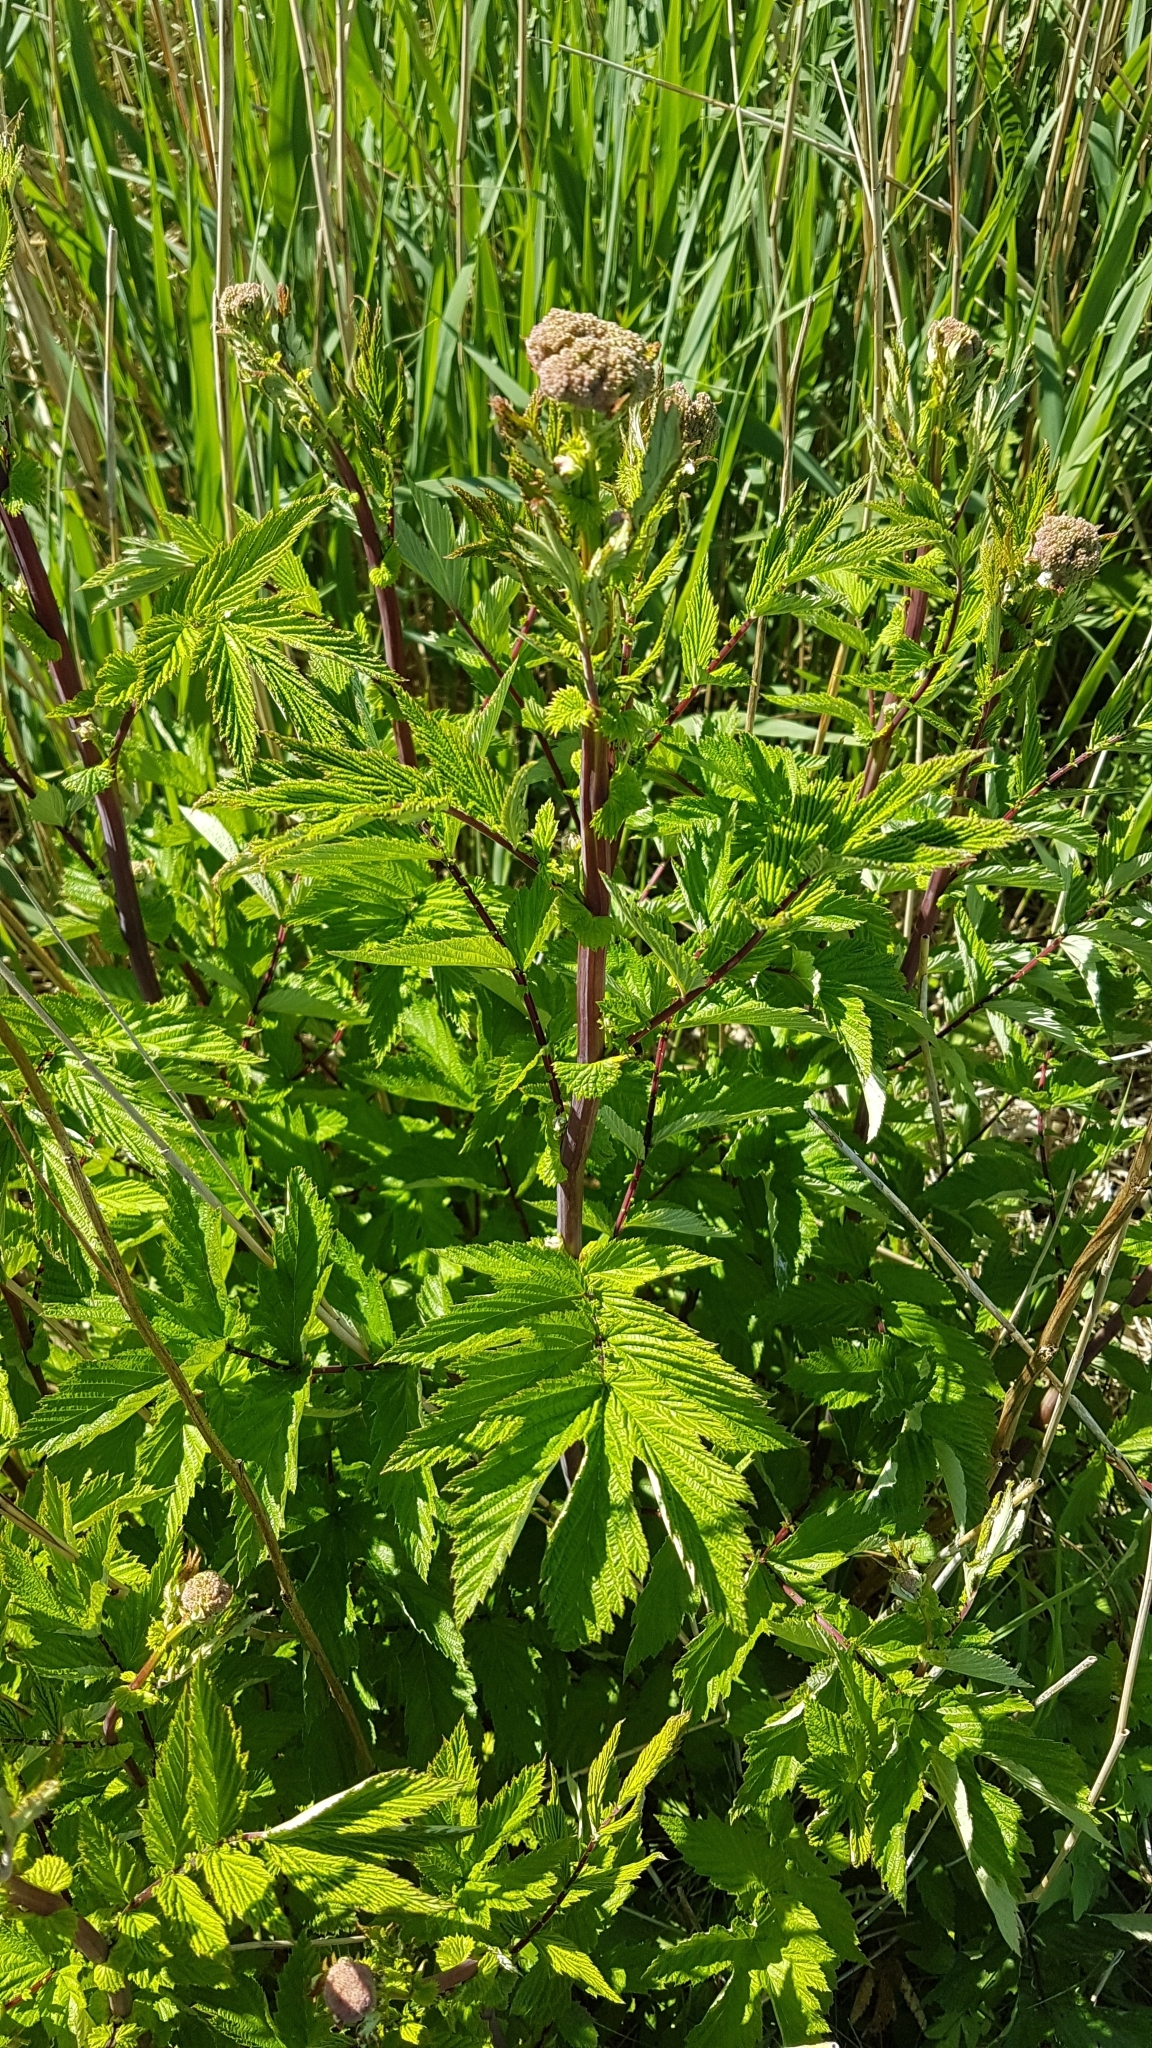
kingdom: Plantae
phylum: Tracheophyta
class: Magnoliopsida
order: Rosales
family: Rosaceae
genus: Filipendula
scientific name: Filipendula ulmaria
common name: Meadowsweet
